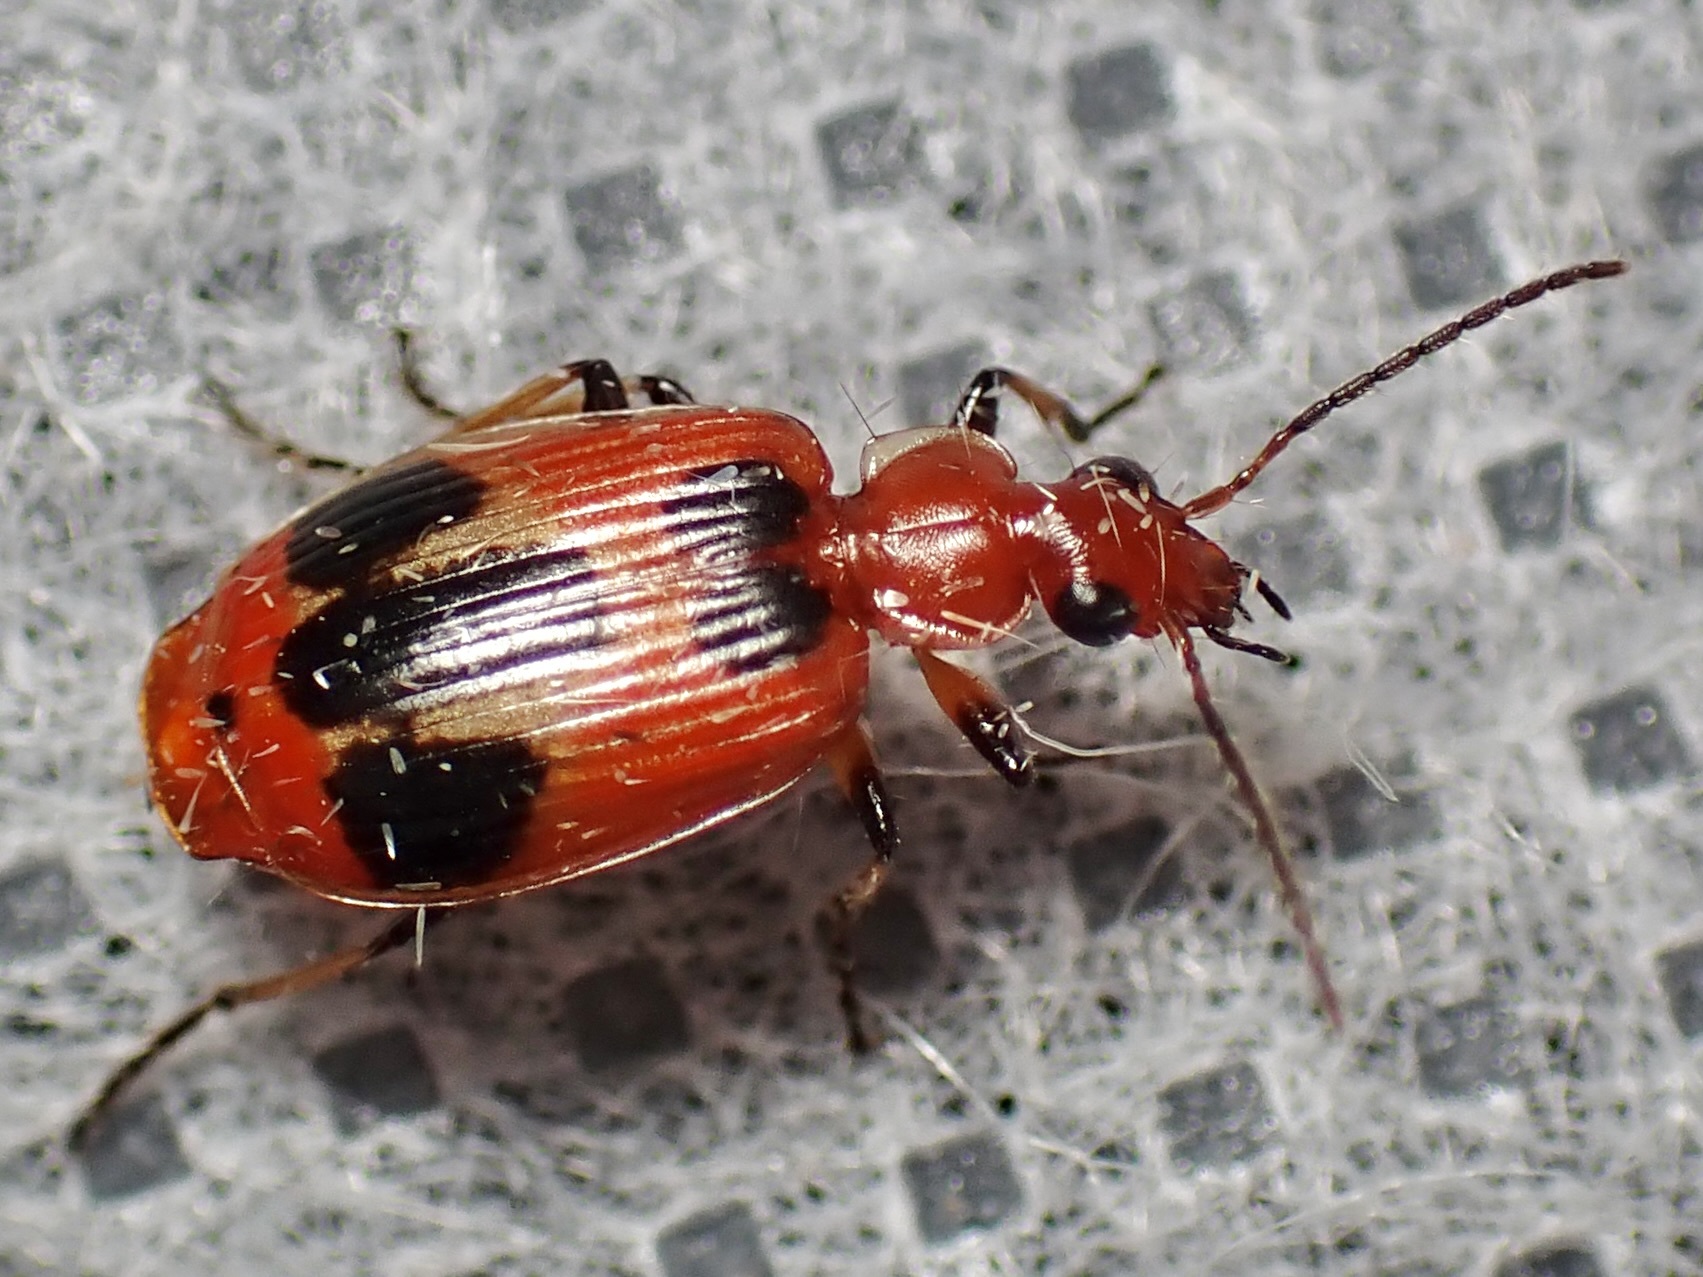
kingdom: Animalia
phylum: Arthropoda
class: Insecta
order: Coleoptera
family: Carabidae
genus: Lebia
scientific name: Lebia histrionica
